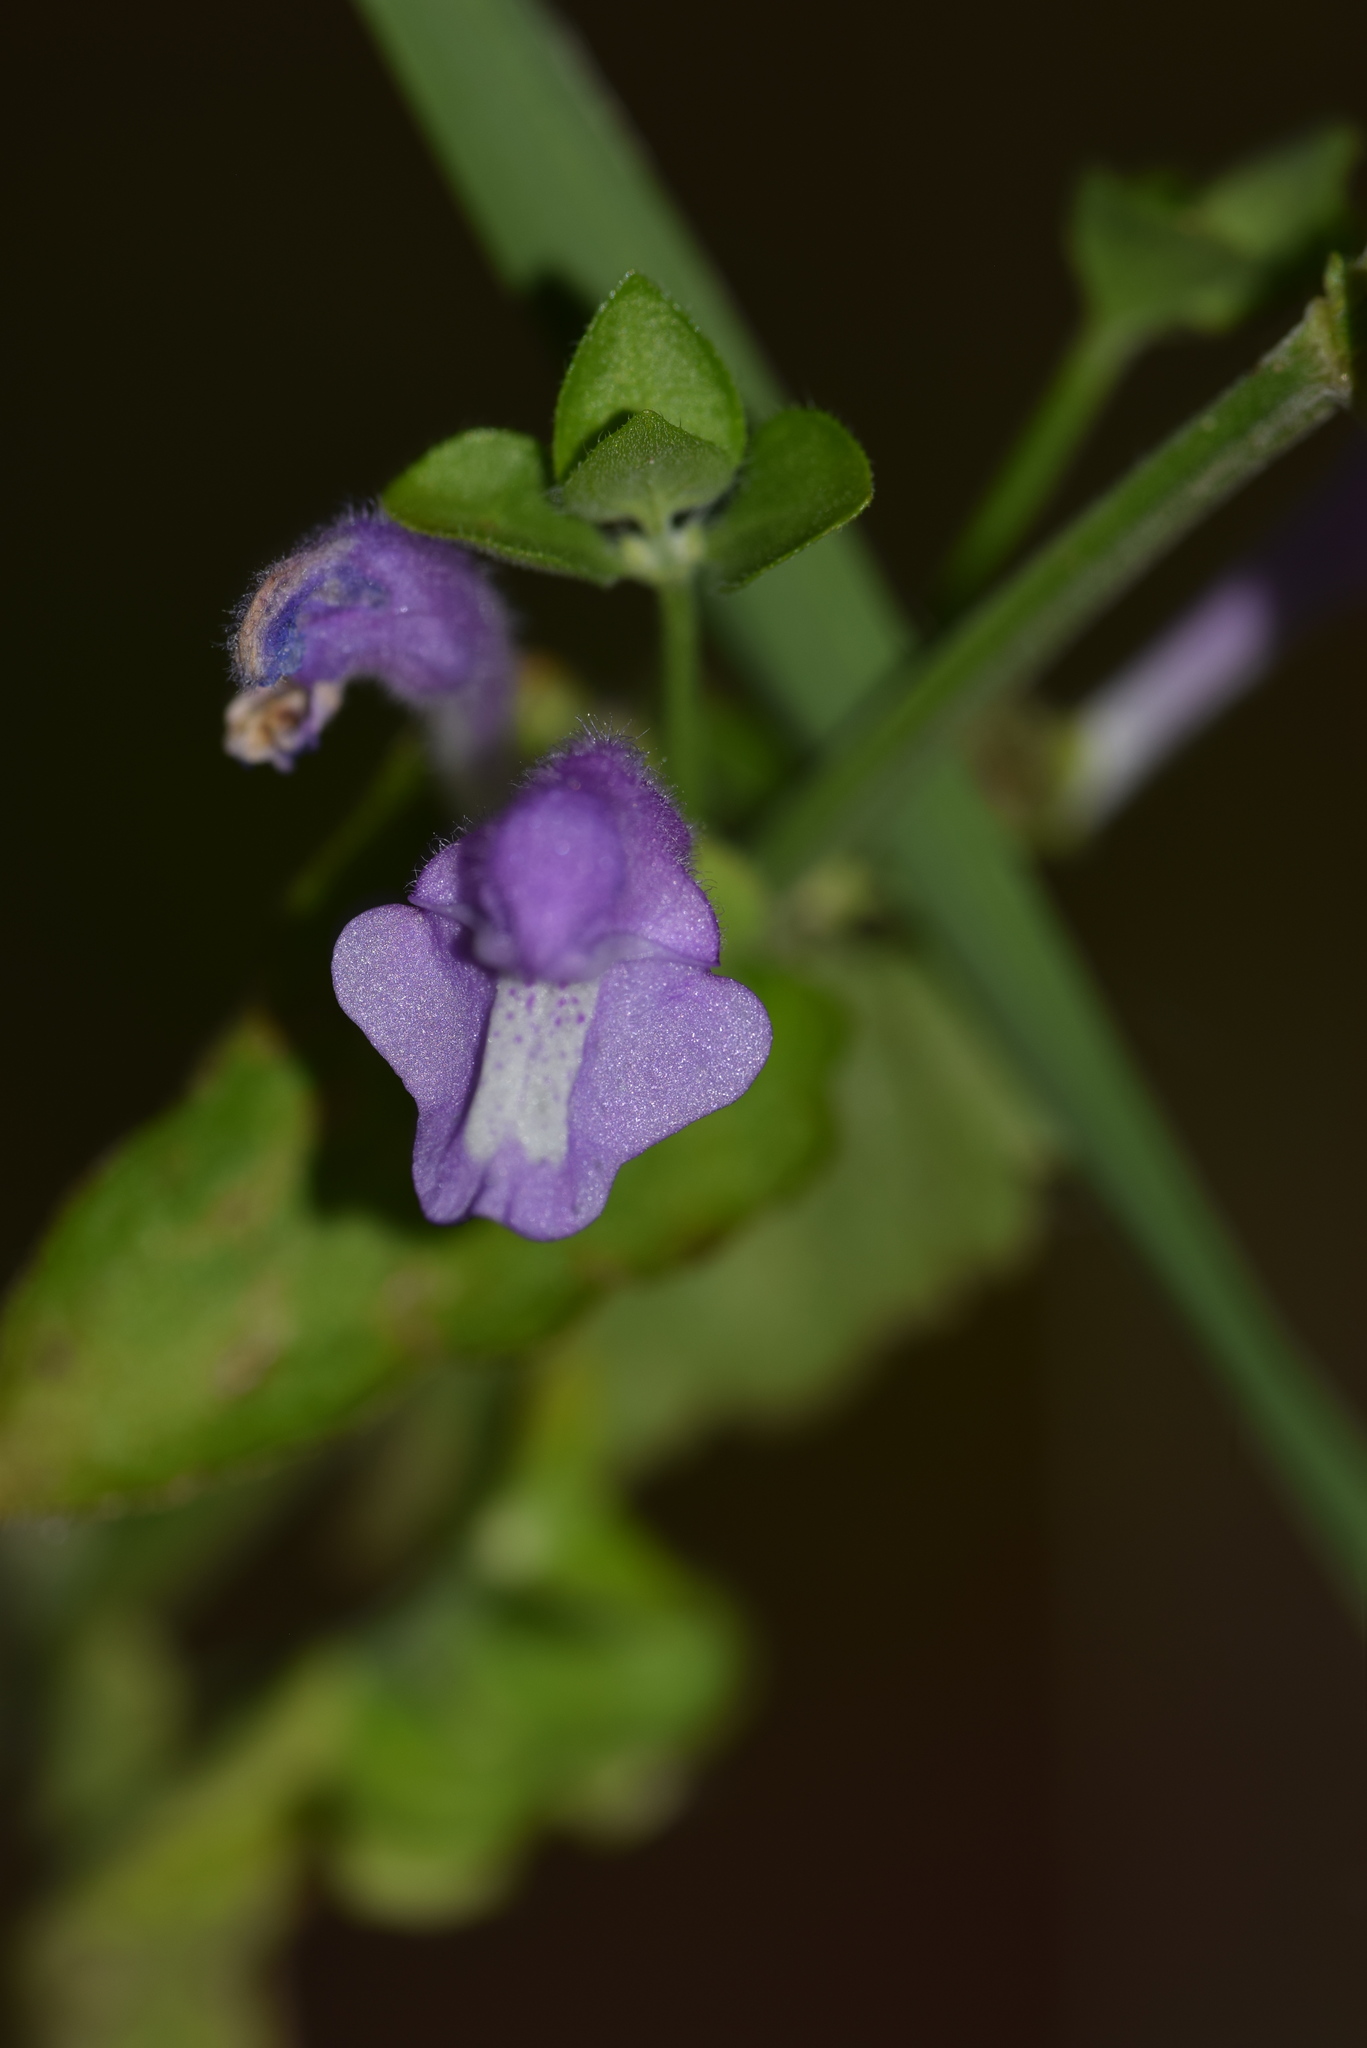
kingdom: Plantae
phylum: Tracheophyta
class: Magnoliopsida
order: Lamiales
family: Lamiaceae
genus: Scutellaria
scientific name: Scutellaria cardiophylla
